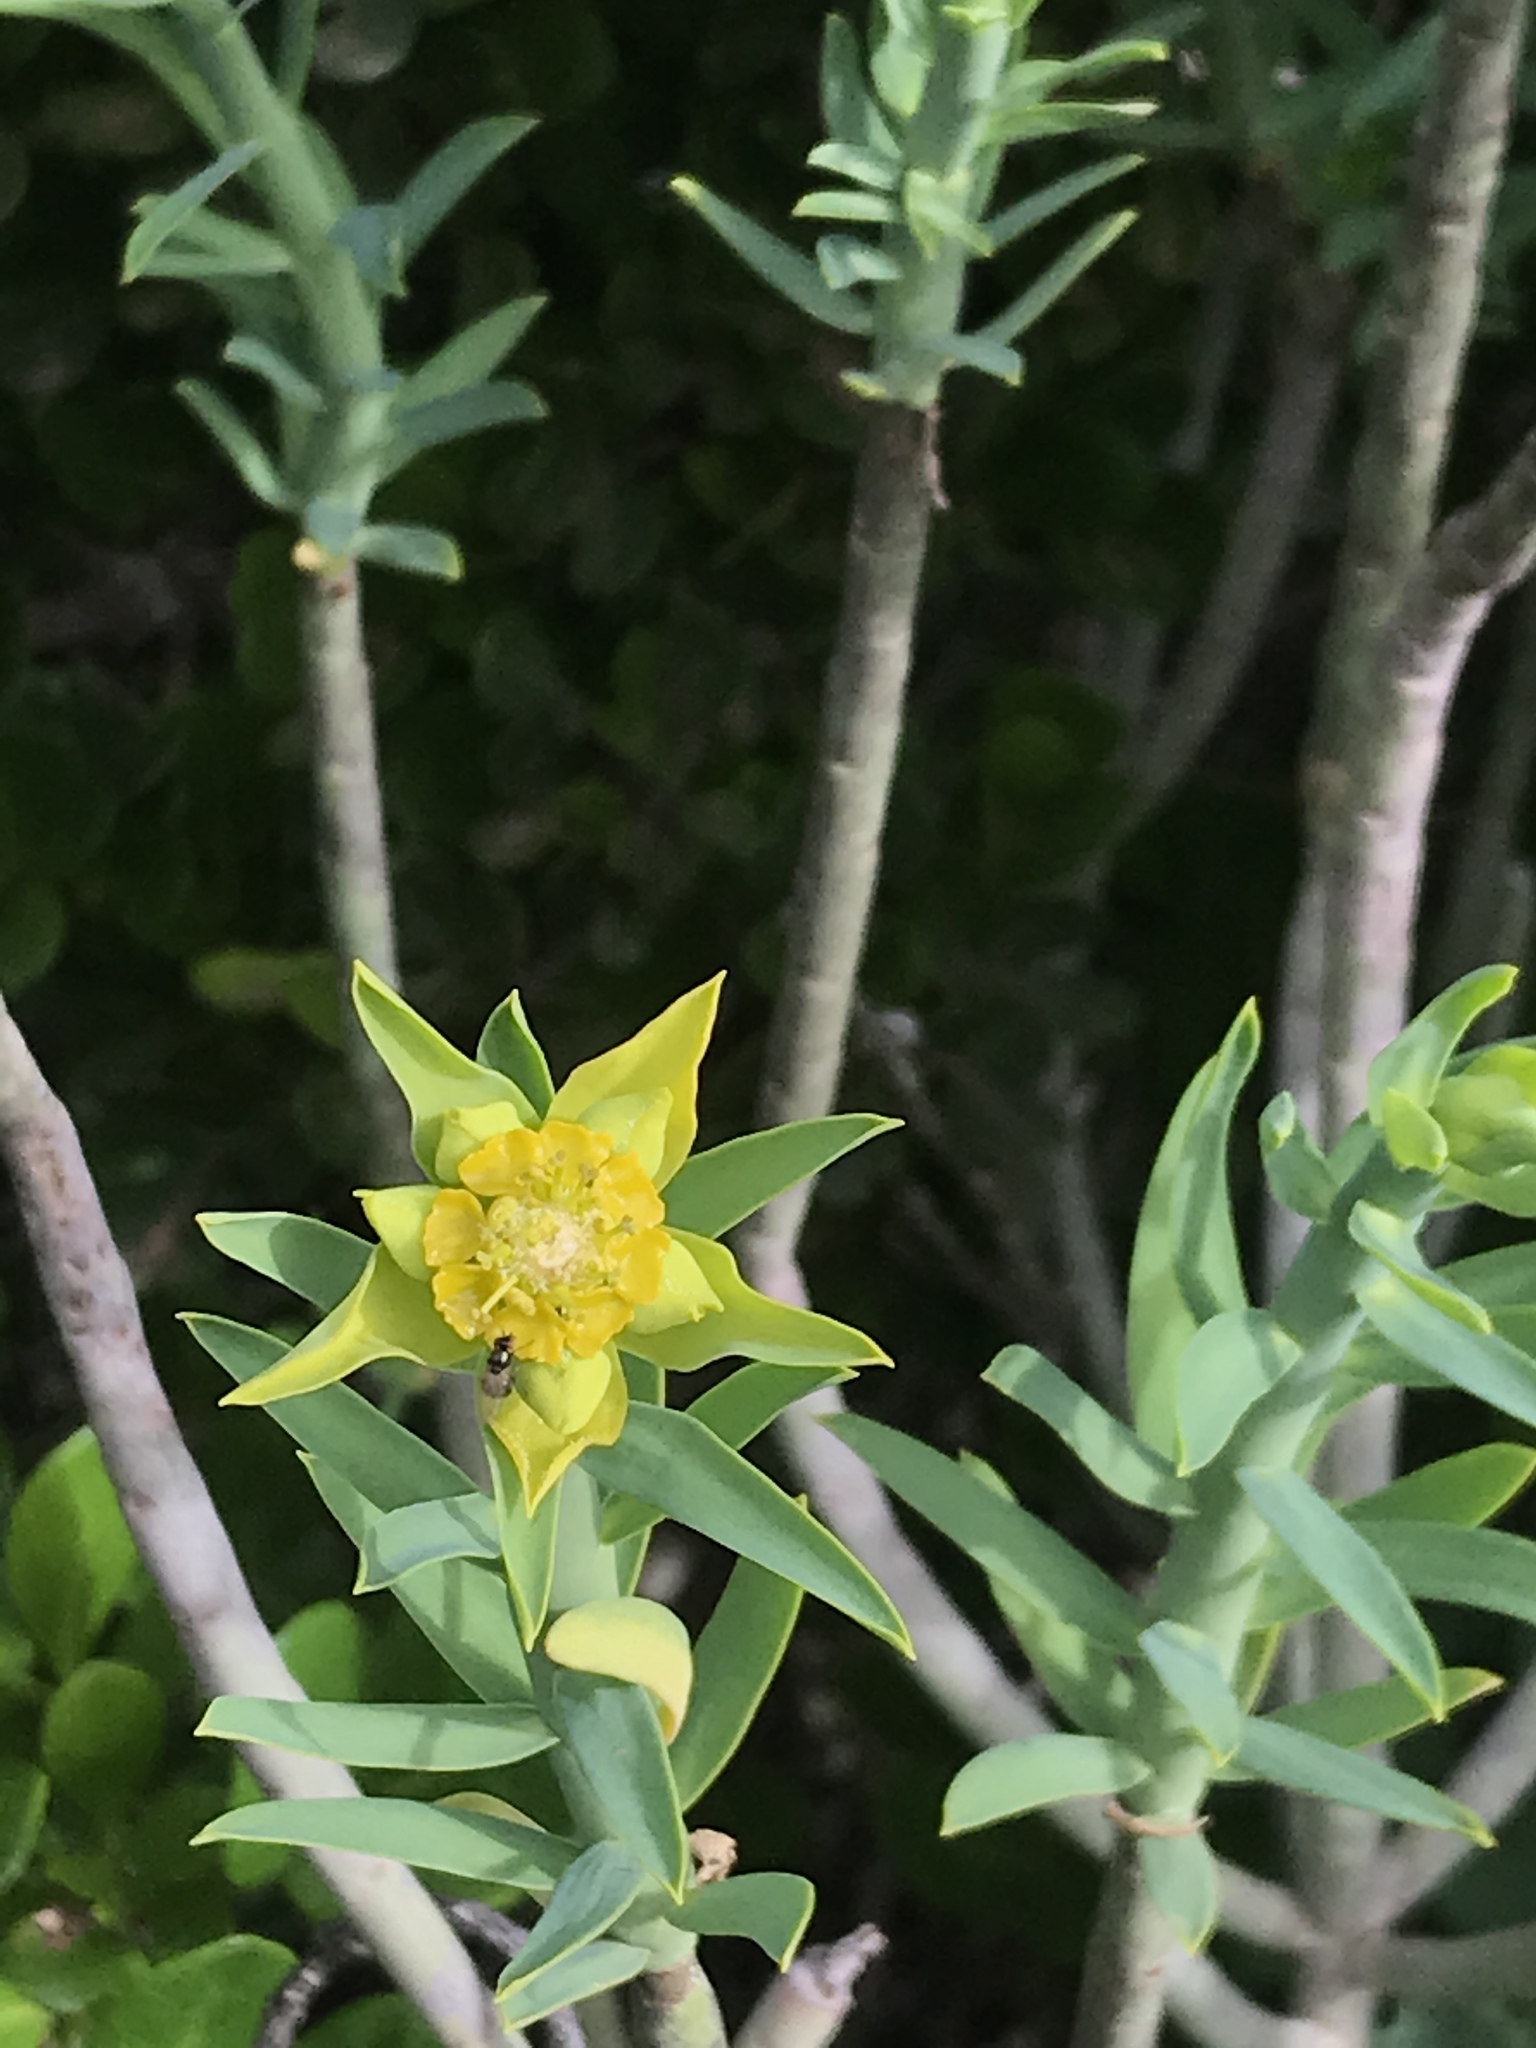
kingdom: Plantae
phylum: Tracheophyta
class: Magnoliopsida
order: Malpighiales
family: Euphorbiaceae
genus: Euphorbia
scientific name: Euphorbia mauritanica
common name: Jackal's-food
